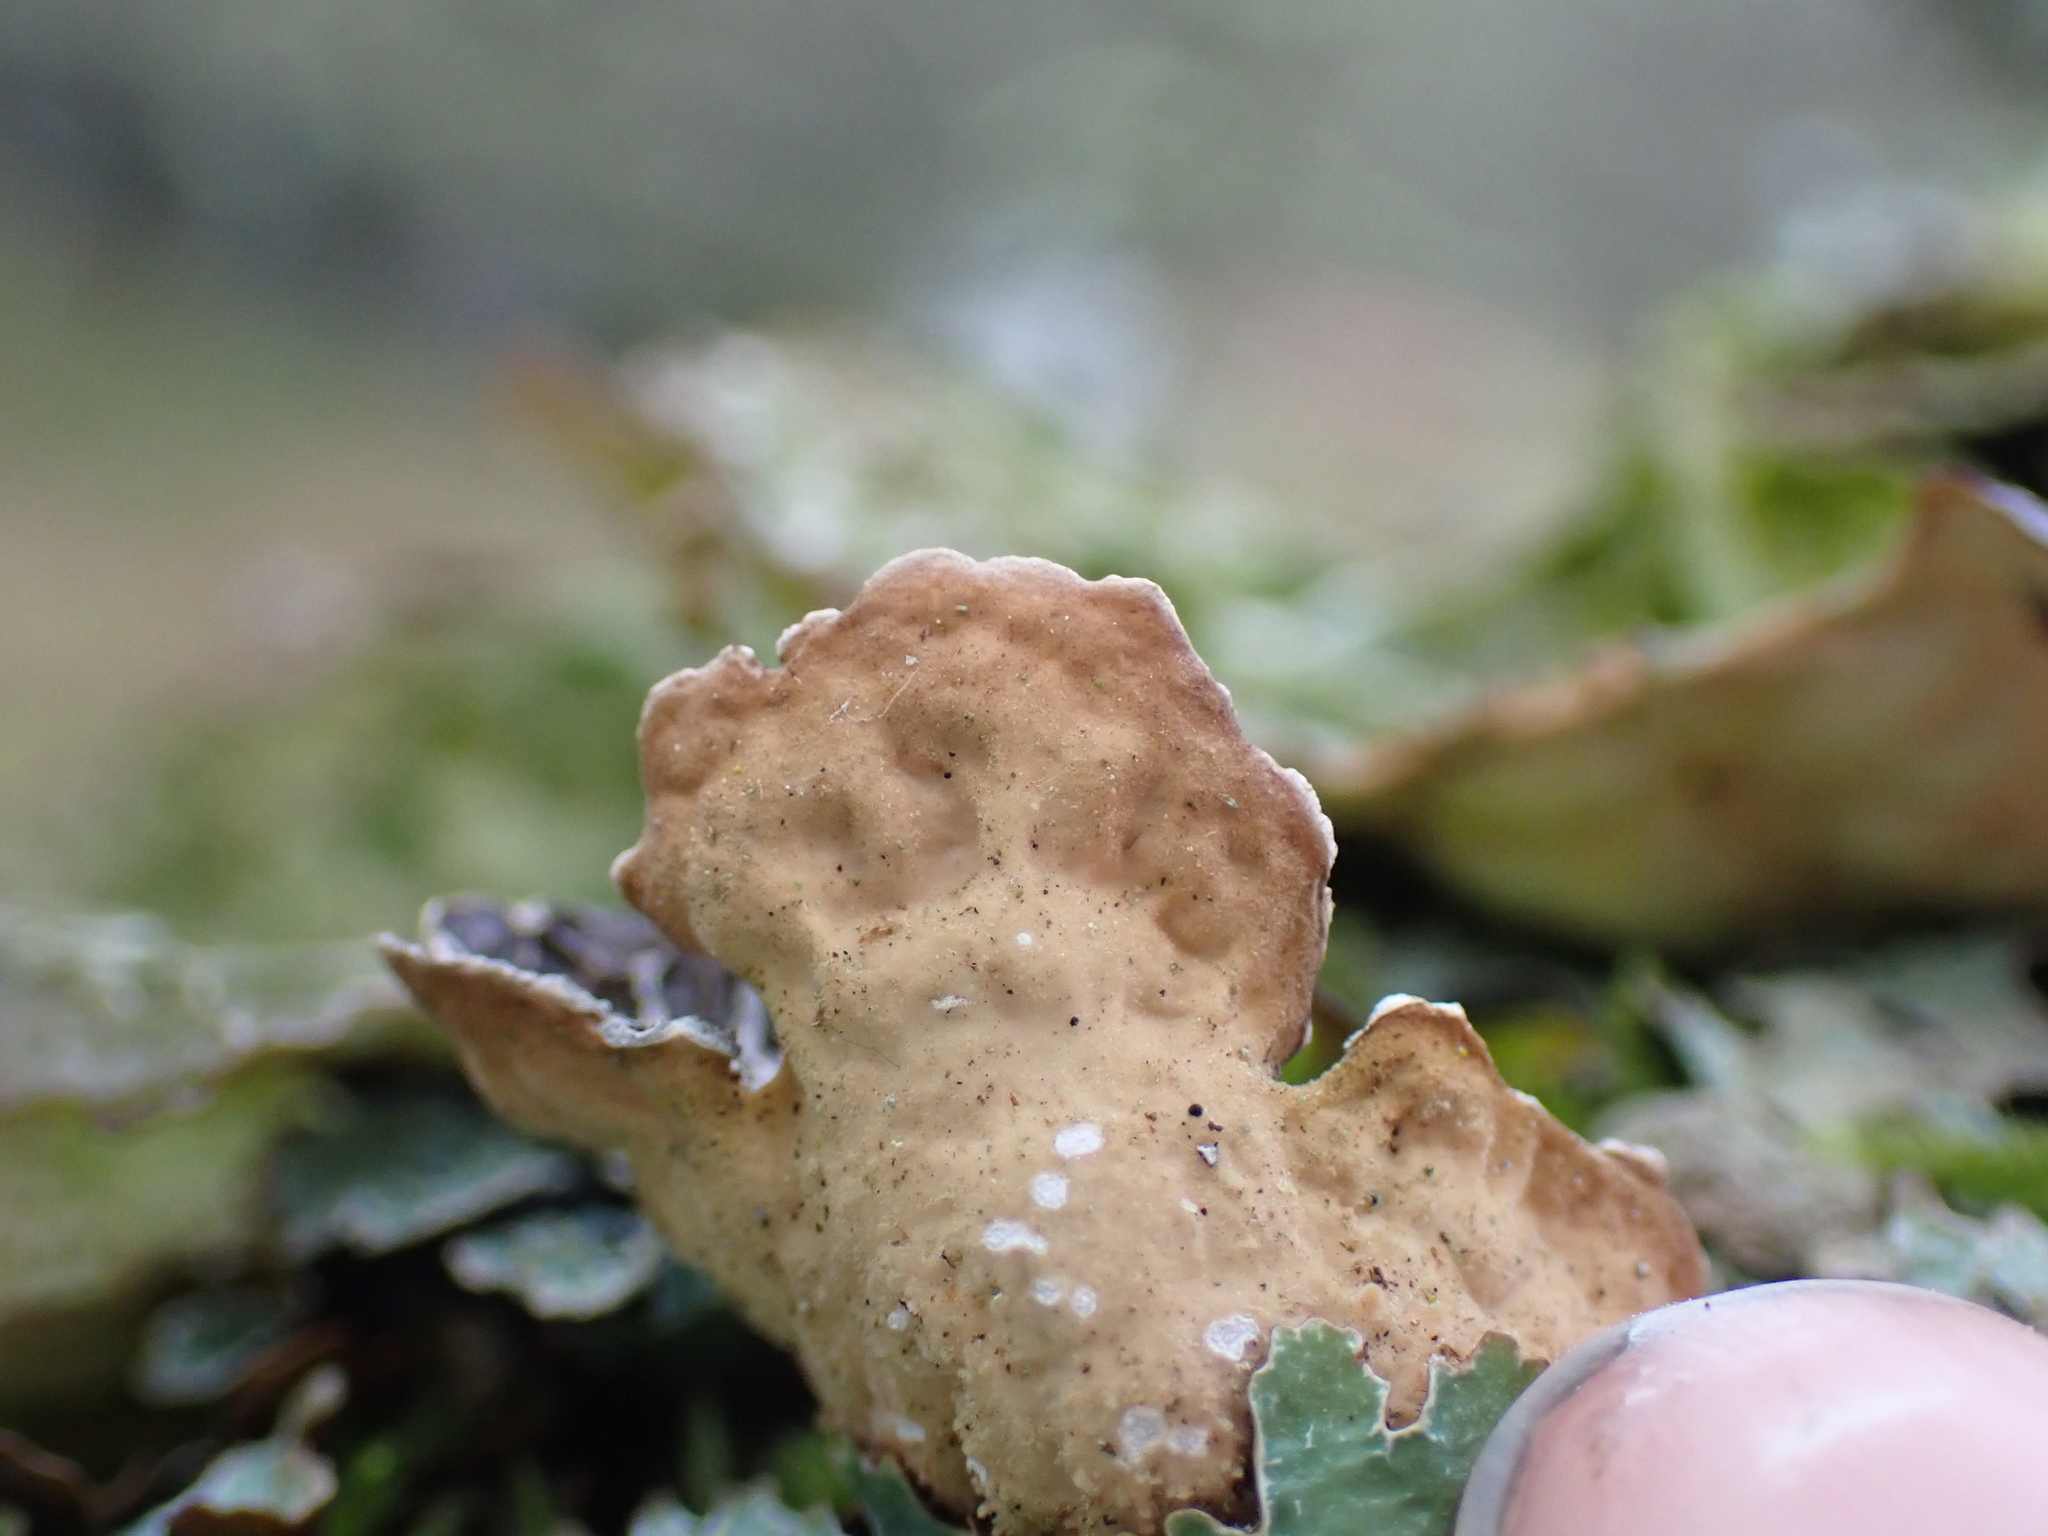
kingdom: Fungi
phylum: Ascomycota
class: Lecanoromycetes
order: Peltigerales
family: Lobariaceae
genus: Lobaria
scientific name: Lobaria anomala
